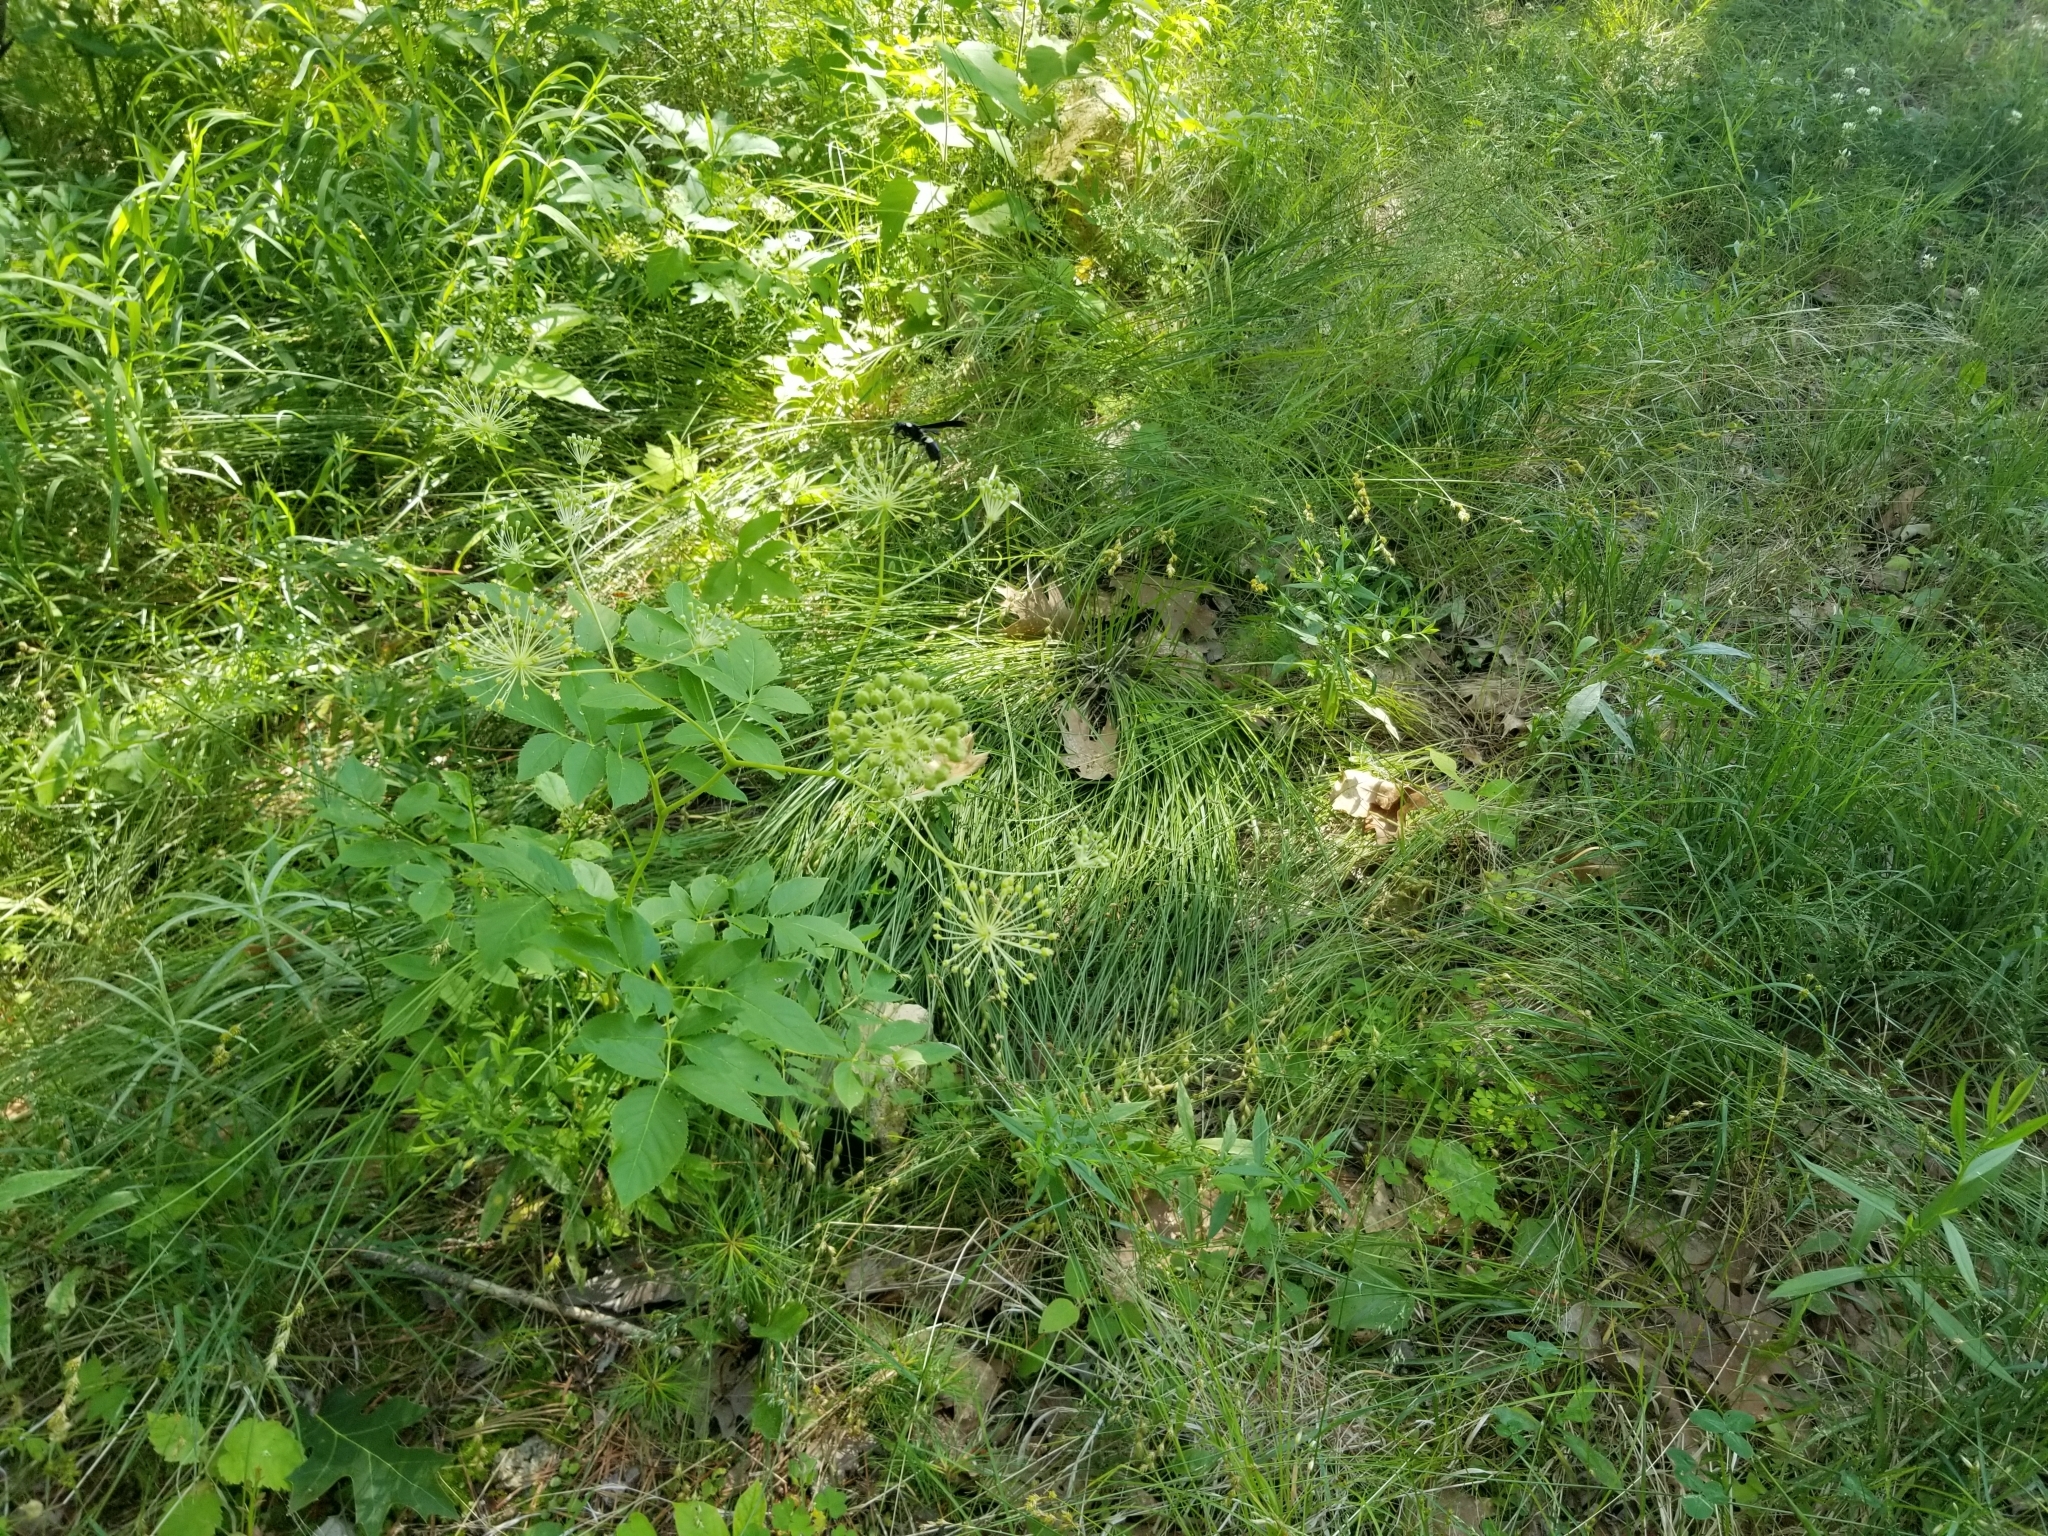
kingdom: Plantae
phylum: Tracheophyta
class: Magnoliopsida
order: Apiales
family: Araliaceae
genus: Aralia
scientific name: Aralia hispida
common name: Bristly sarsaparilla
